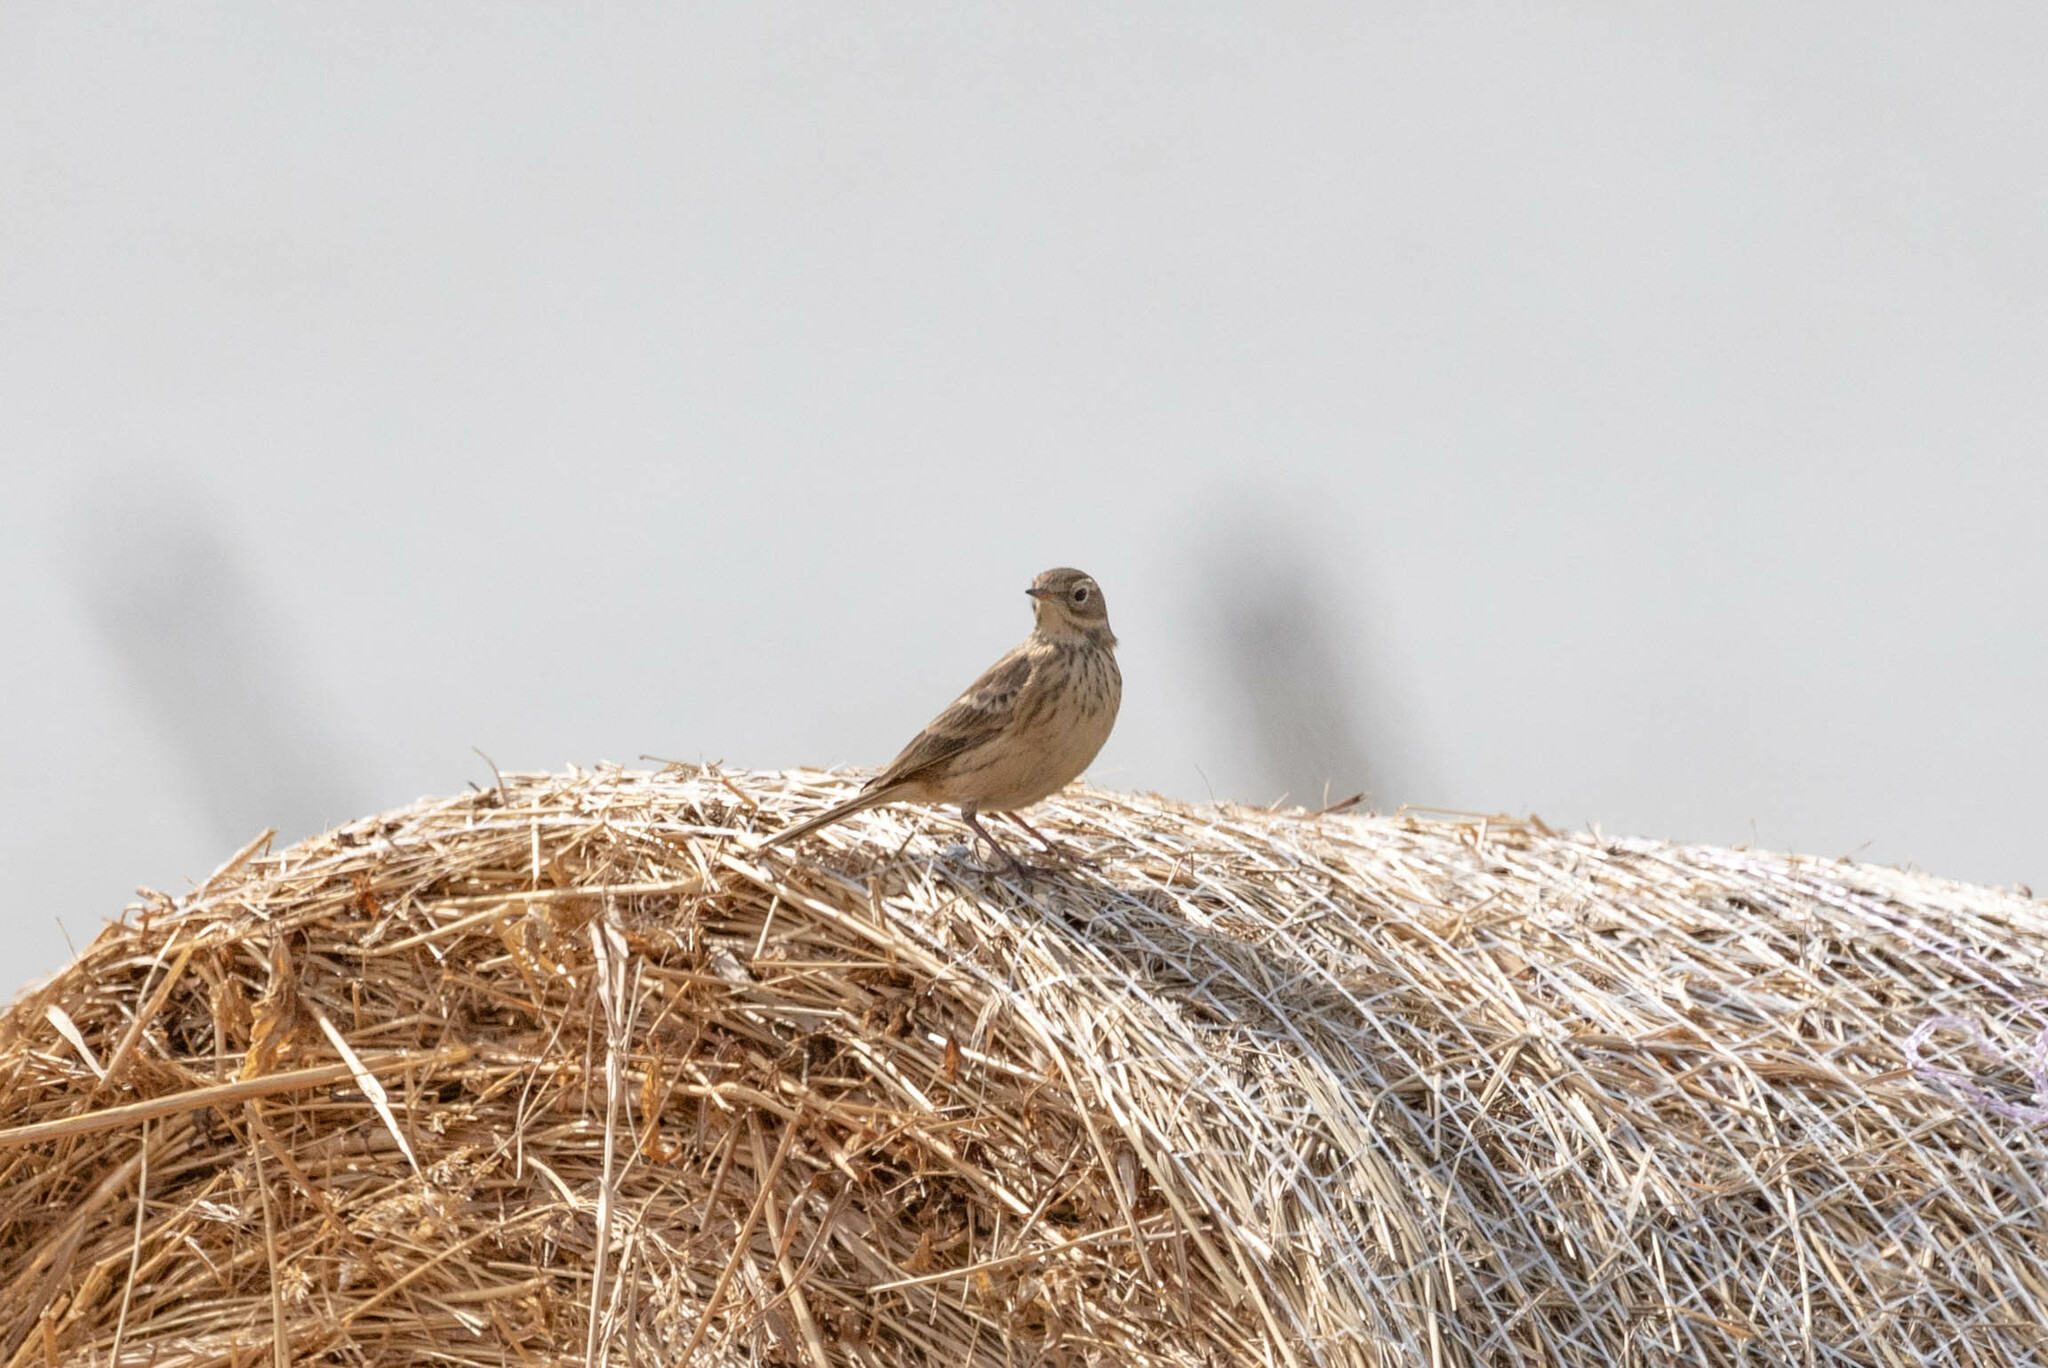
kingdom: Animalia
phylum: Chordata
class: Aves
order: Passeriformes
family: Motacillidae
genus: Anthus
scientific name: Anthus rubescens
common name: Buff-bellied pipit
